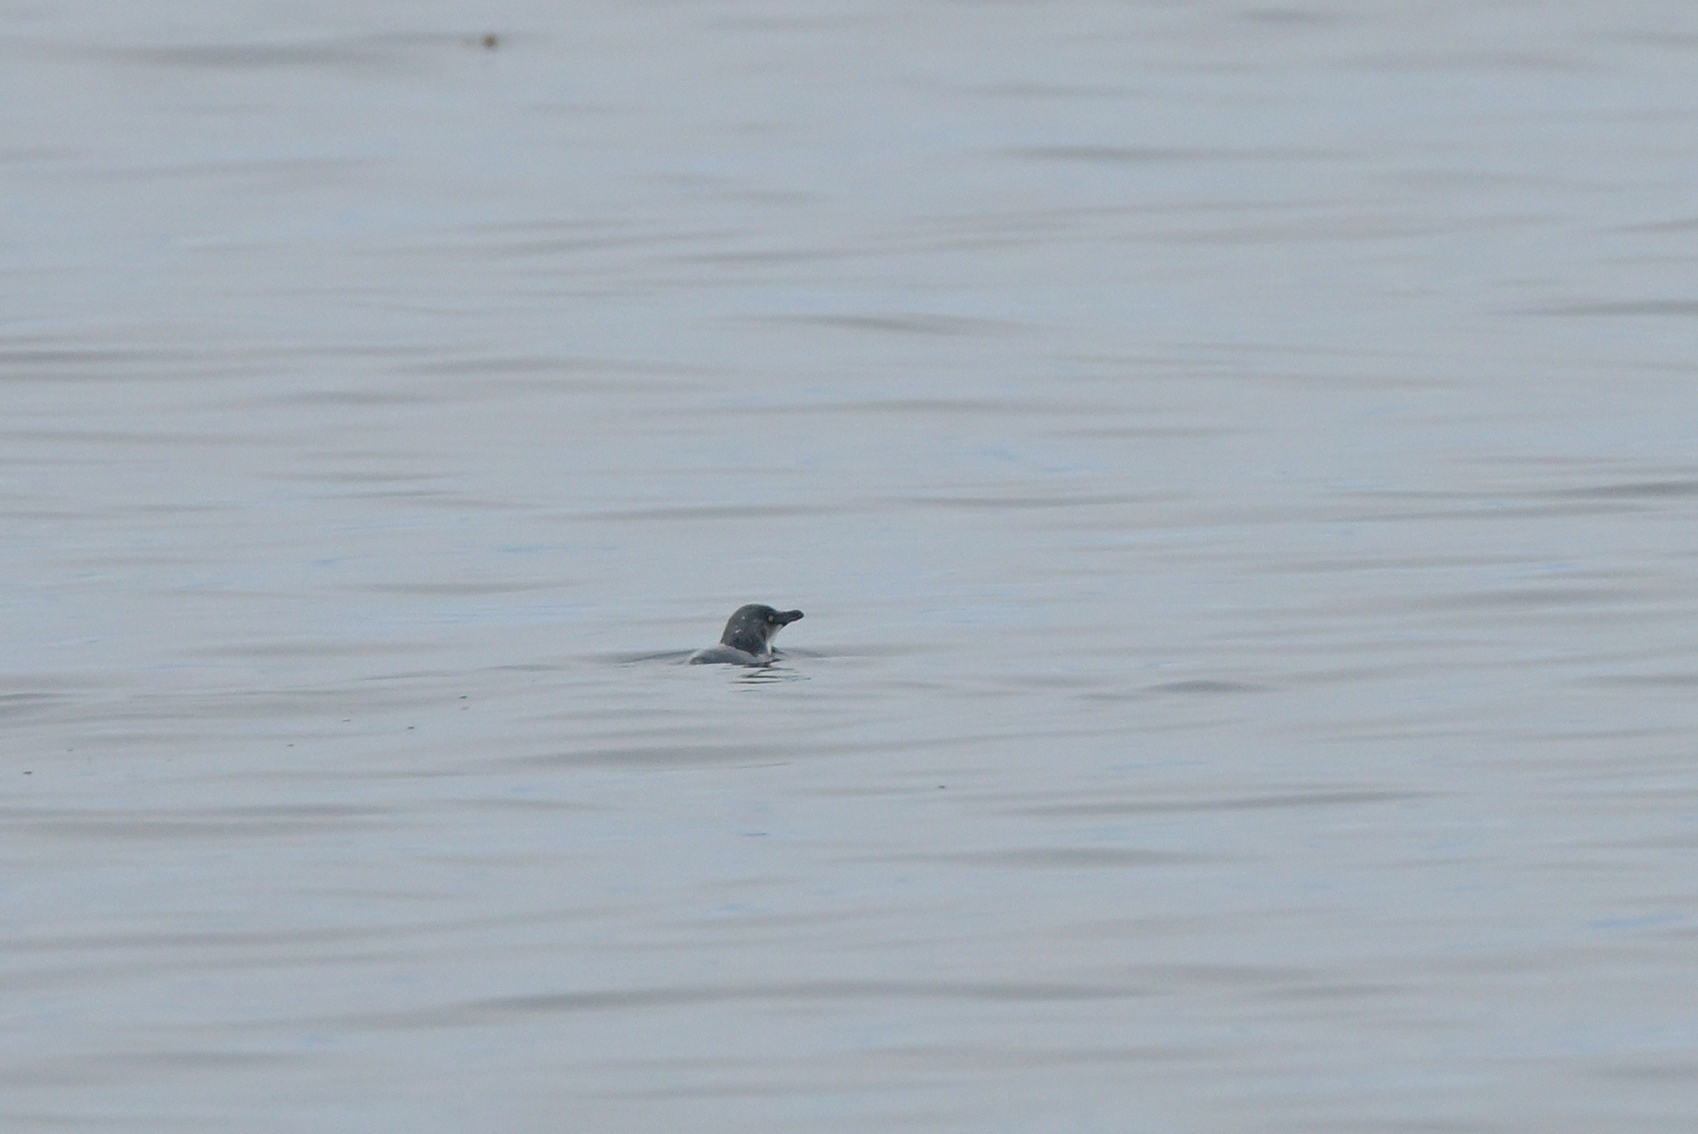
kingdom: Animalia
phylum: Chordata
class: Aves
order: Sphenisciformes
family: Spheniscidae
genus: Eudyptula
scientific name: Eudyptula minor
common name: Little penguin
